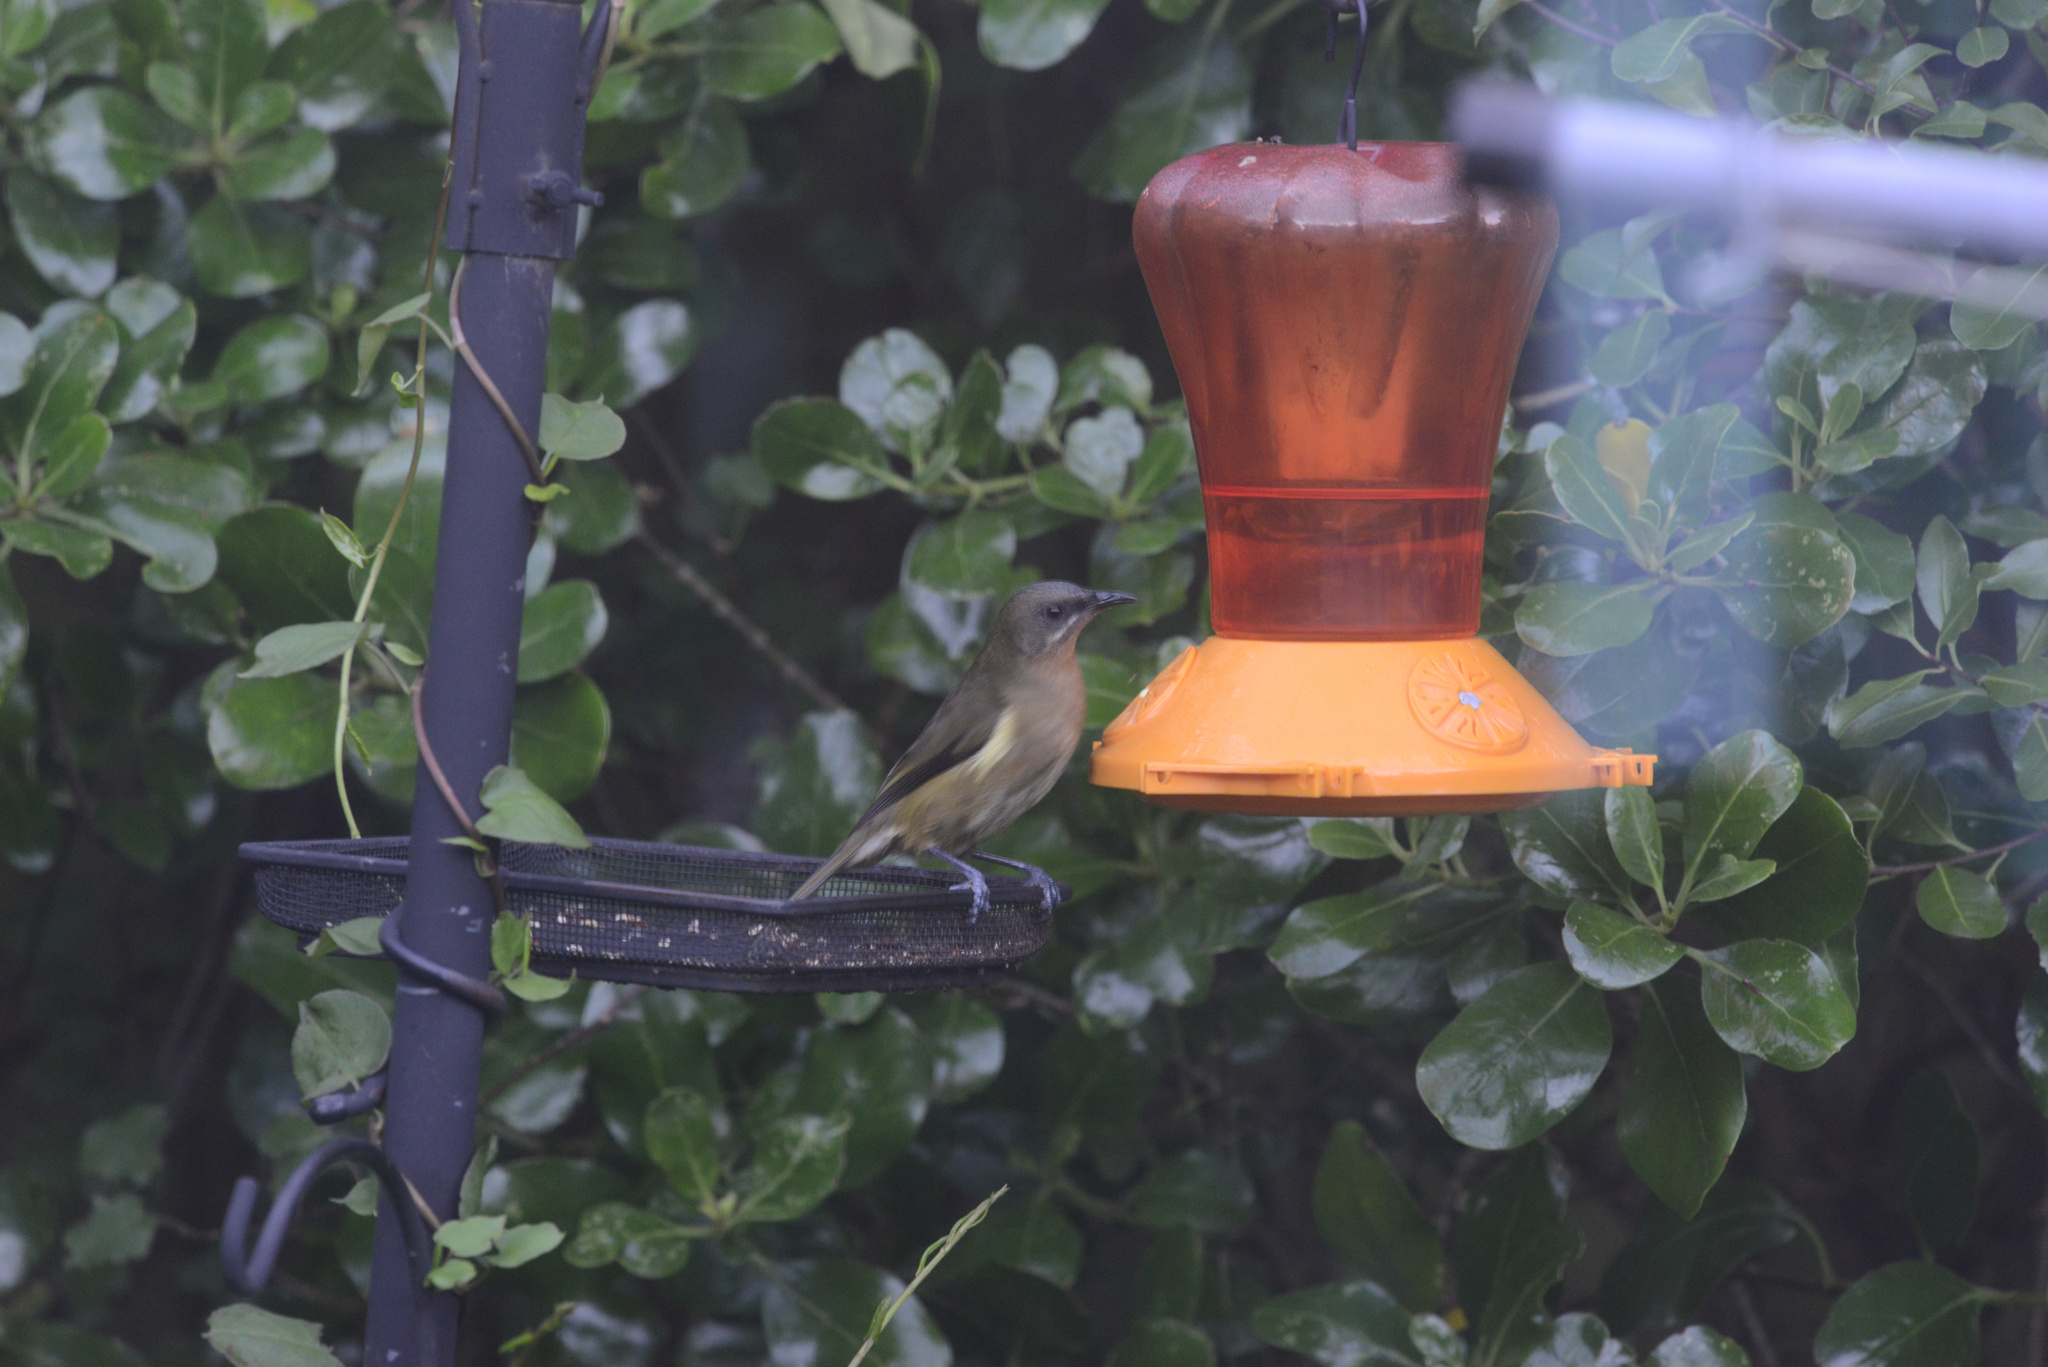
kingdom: Animalia
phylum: Chordata
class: Aves
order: Passeriformes
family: Meliphagidae
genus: Anthornis
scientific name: Anthornis melanura
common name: New zealand bellbird
